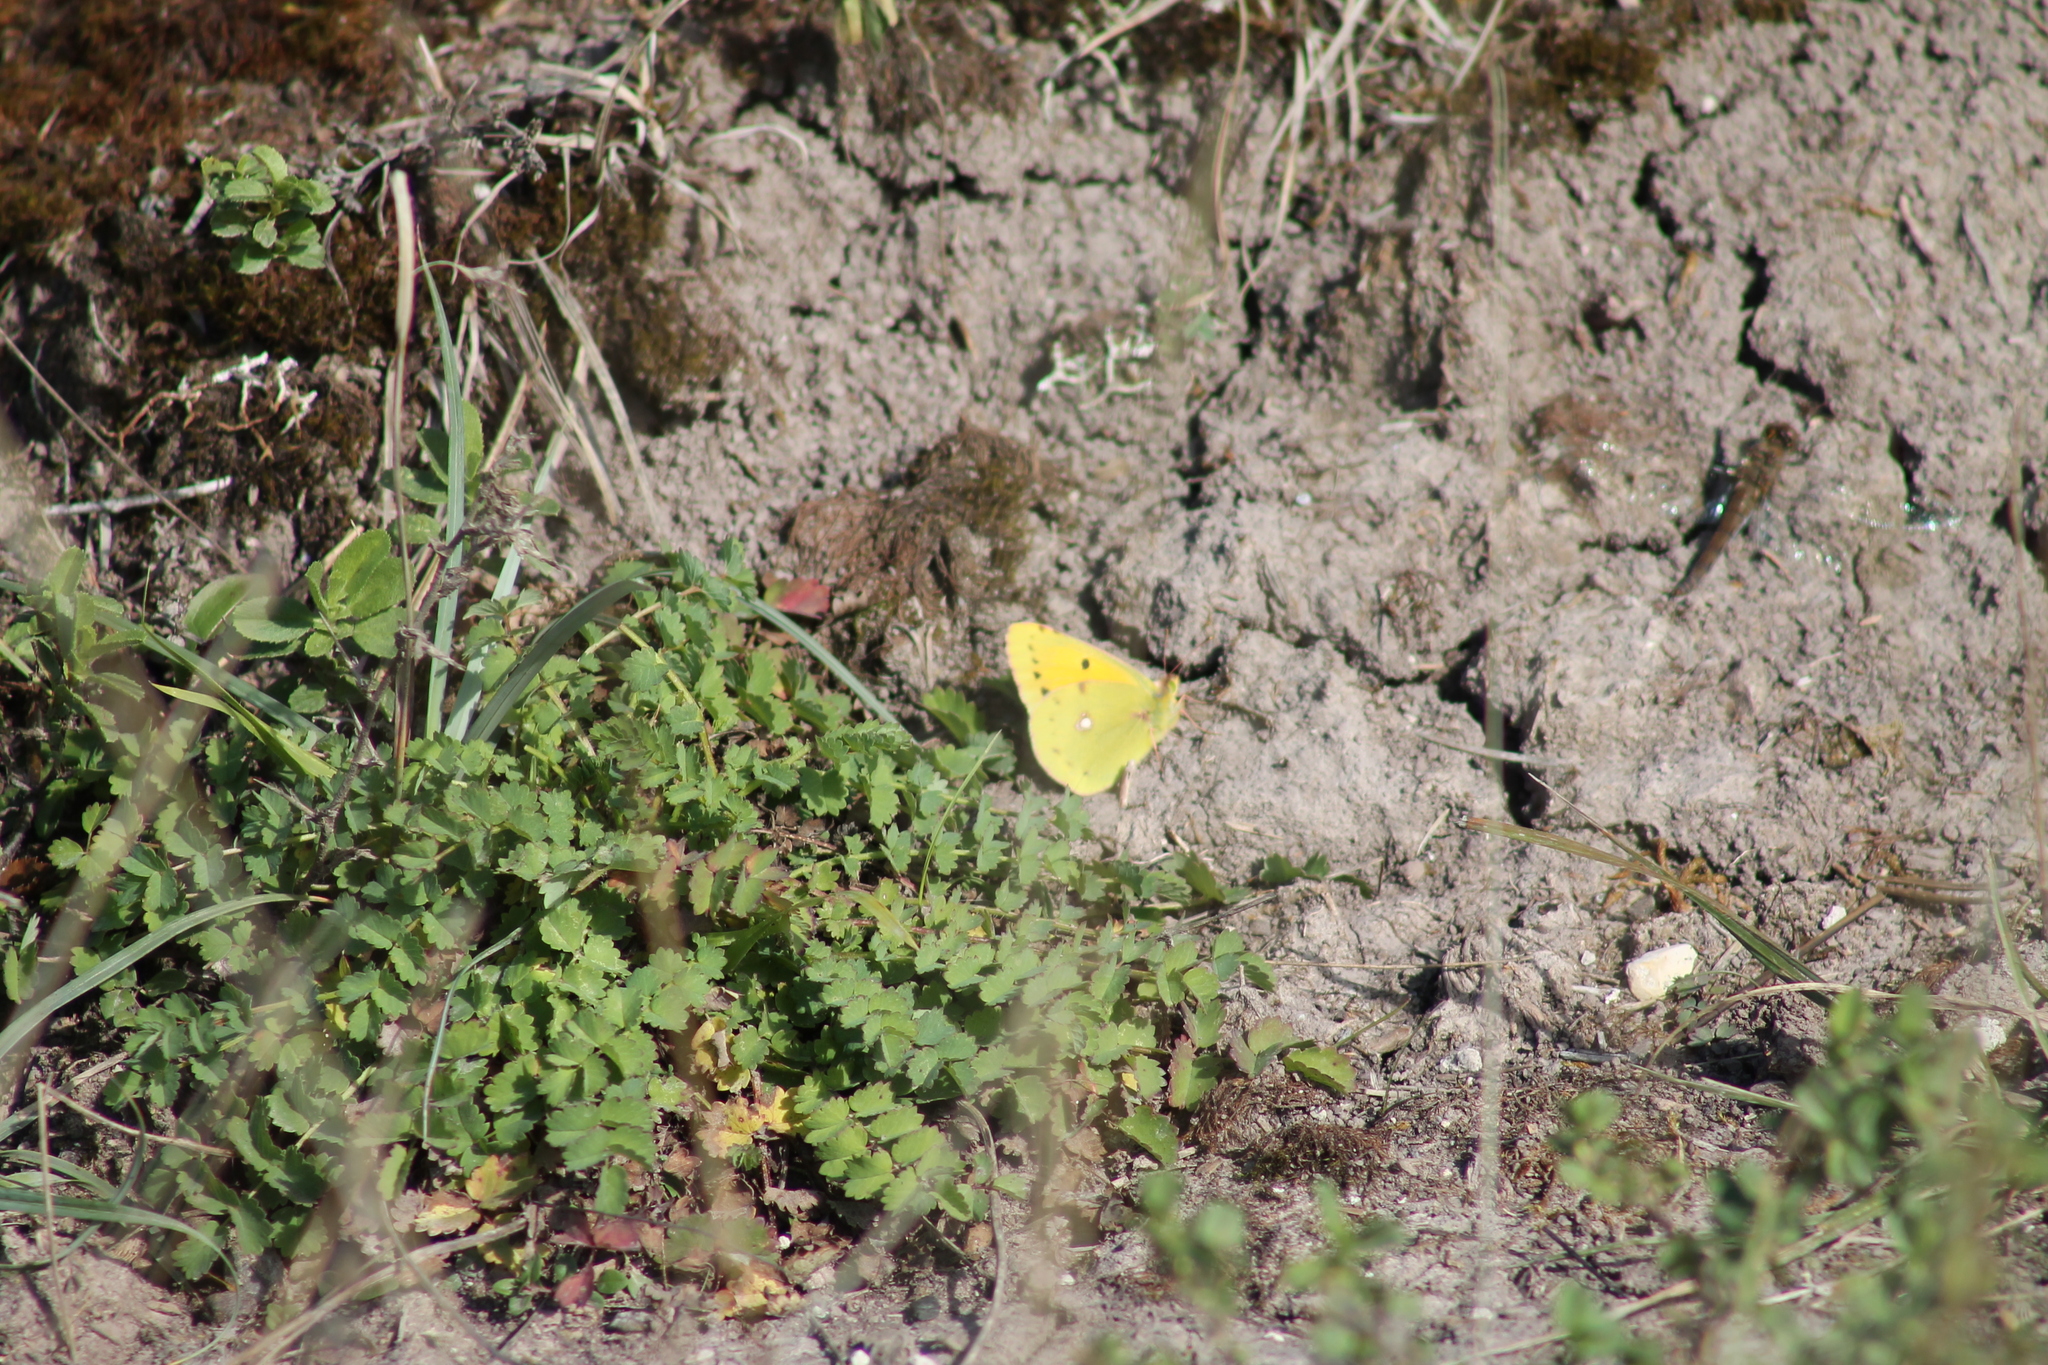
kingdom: Animalia
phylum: Arthropoda
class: Insecta
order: Lepidoptera
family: Pieridae
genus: Colias
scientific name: Colias croceus
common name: Clouded yellow
